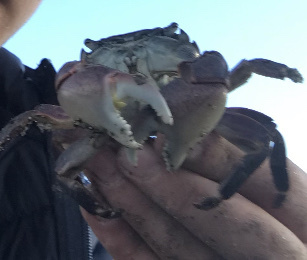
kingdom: Animalia
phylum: Arthropoda
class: Malacostraca
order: Decapoda
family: Grapsidae
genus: Pachygrapsus
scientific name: Pachygrapsus crassipes
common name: Striped shore crab
